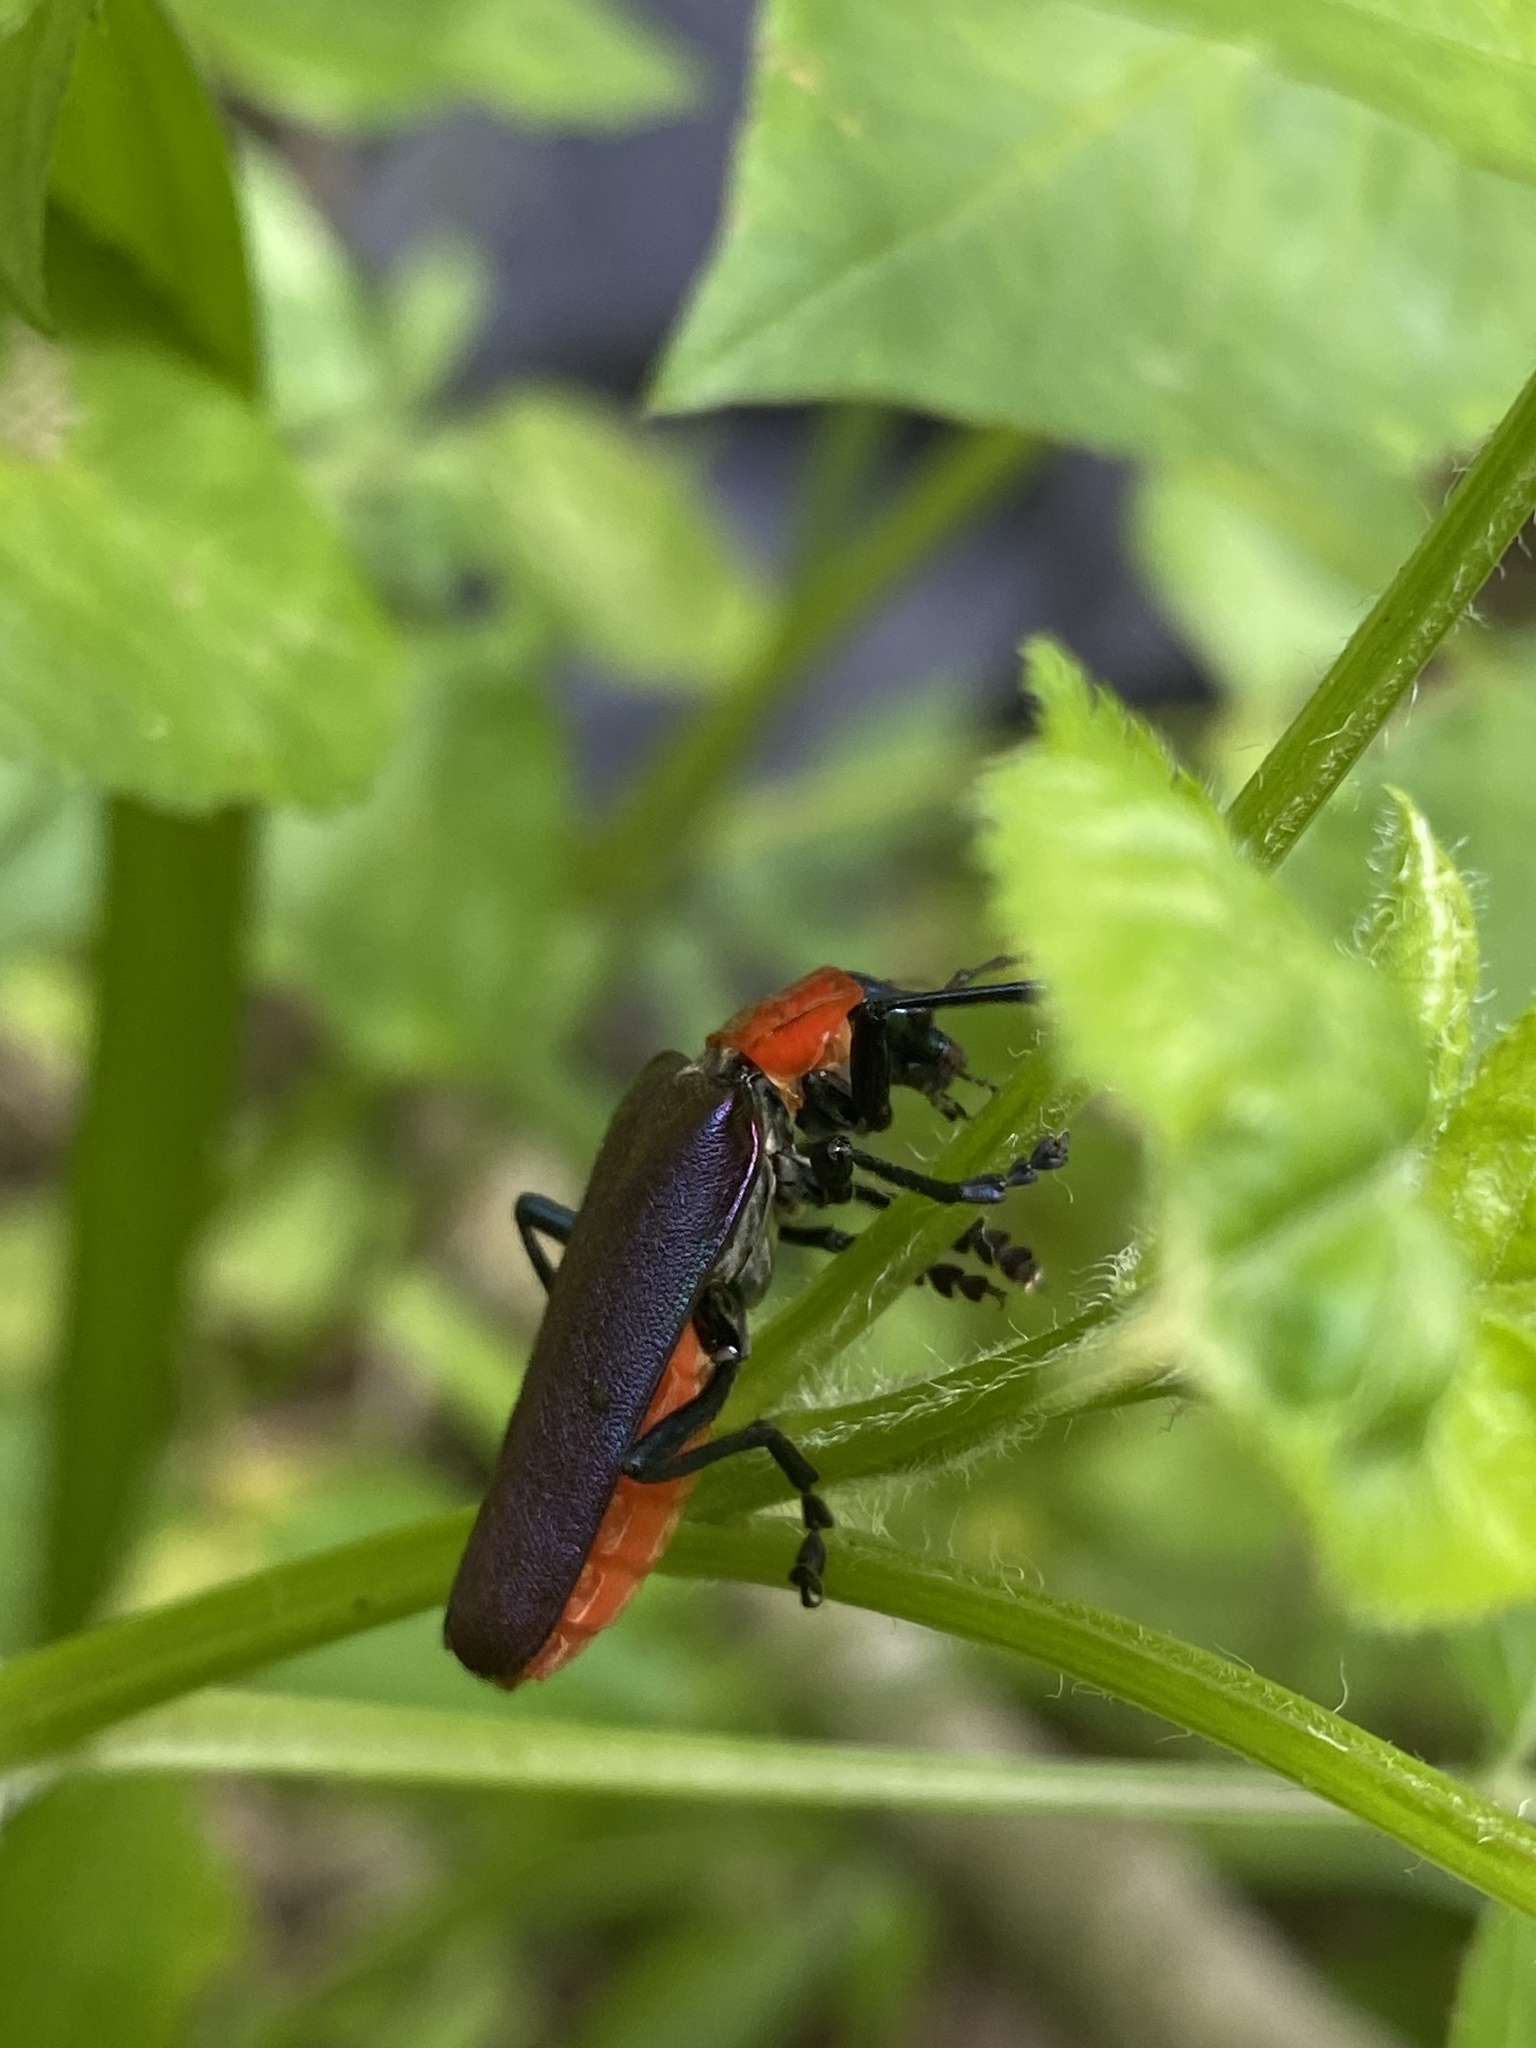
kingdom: Animalia
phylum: Arthropoda
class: Insecta
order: Coleoptera
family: Cantharidae
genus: Themus
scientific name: Themus purpuratus
